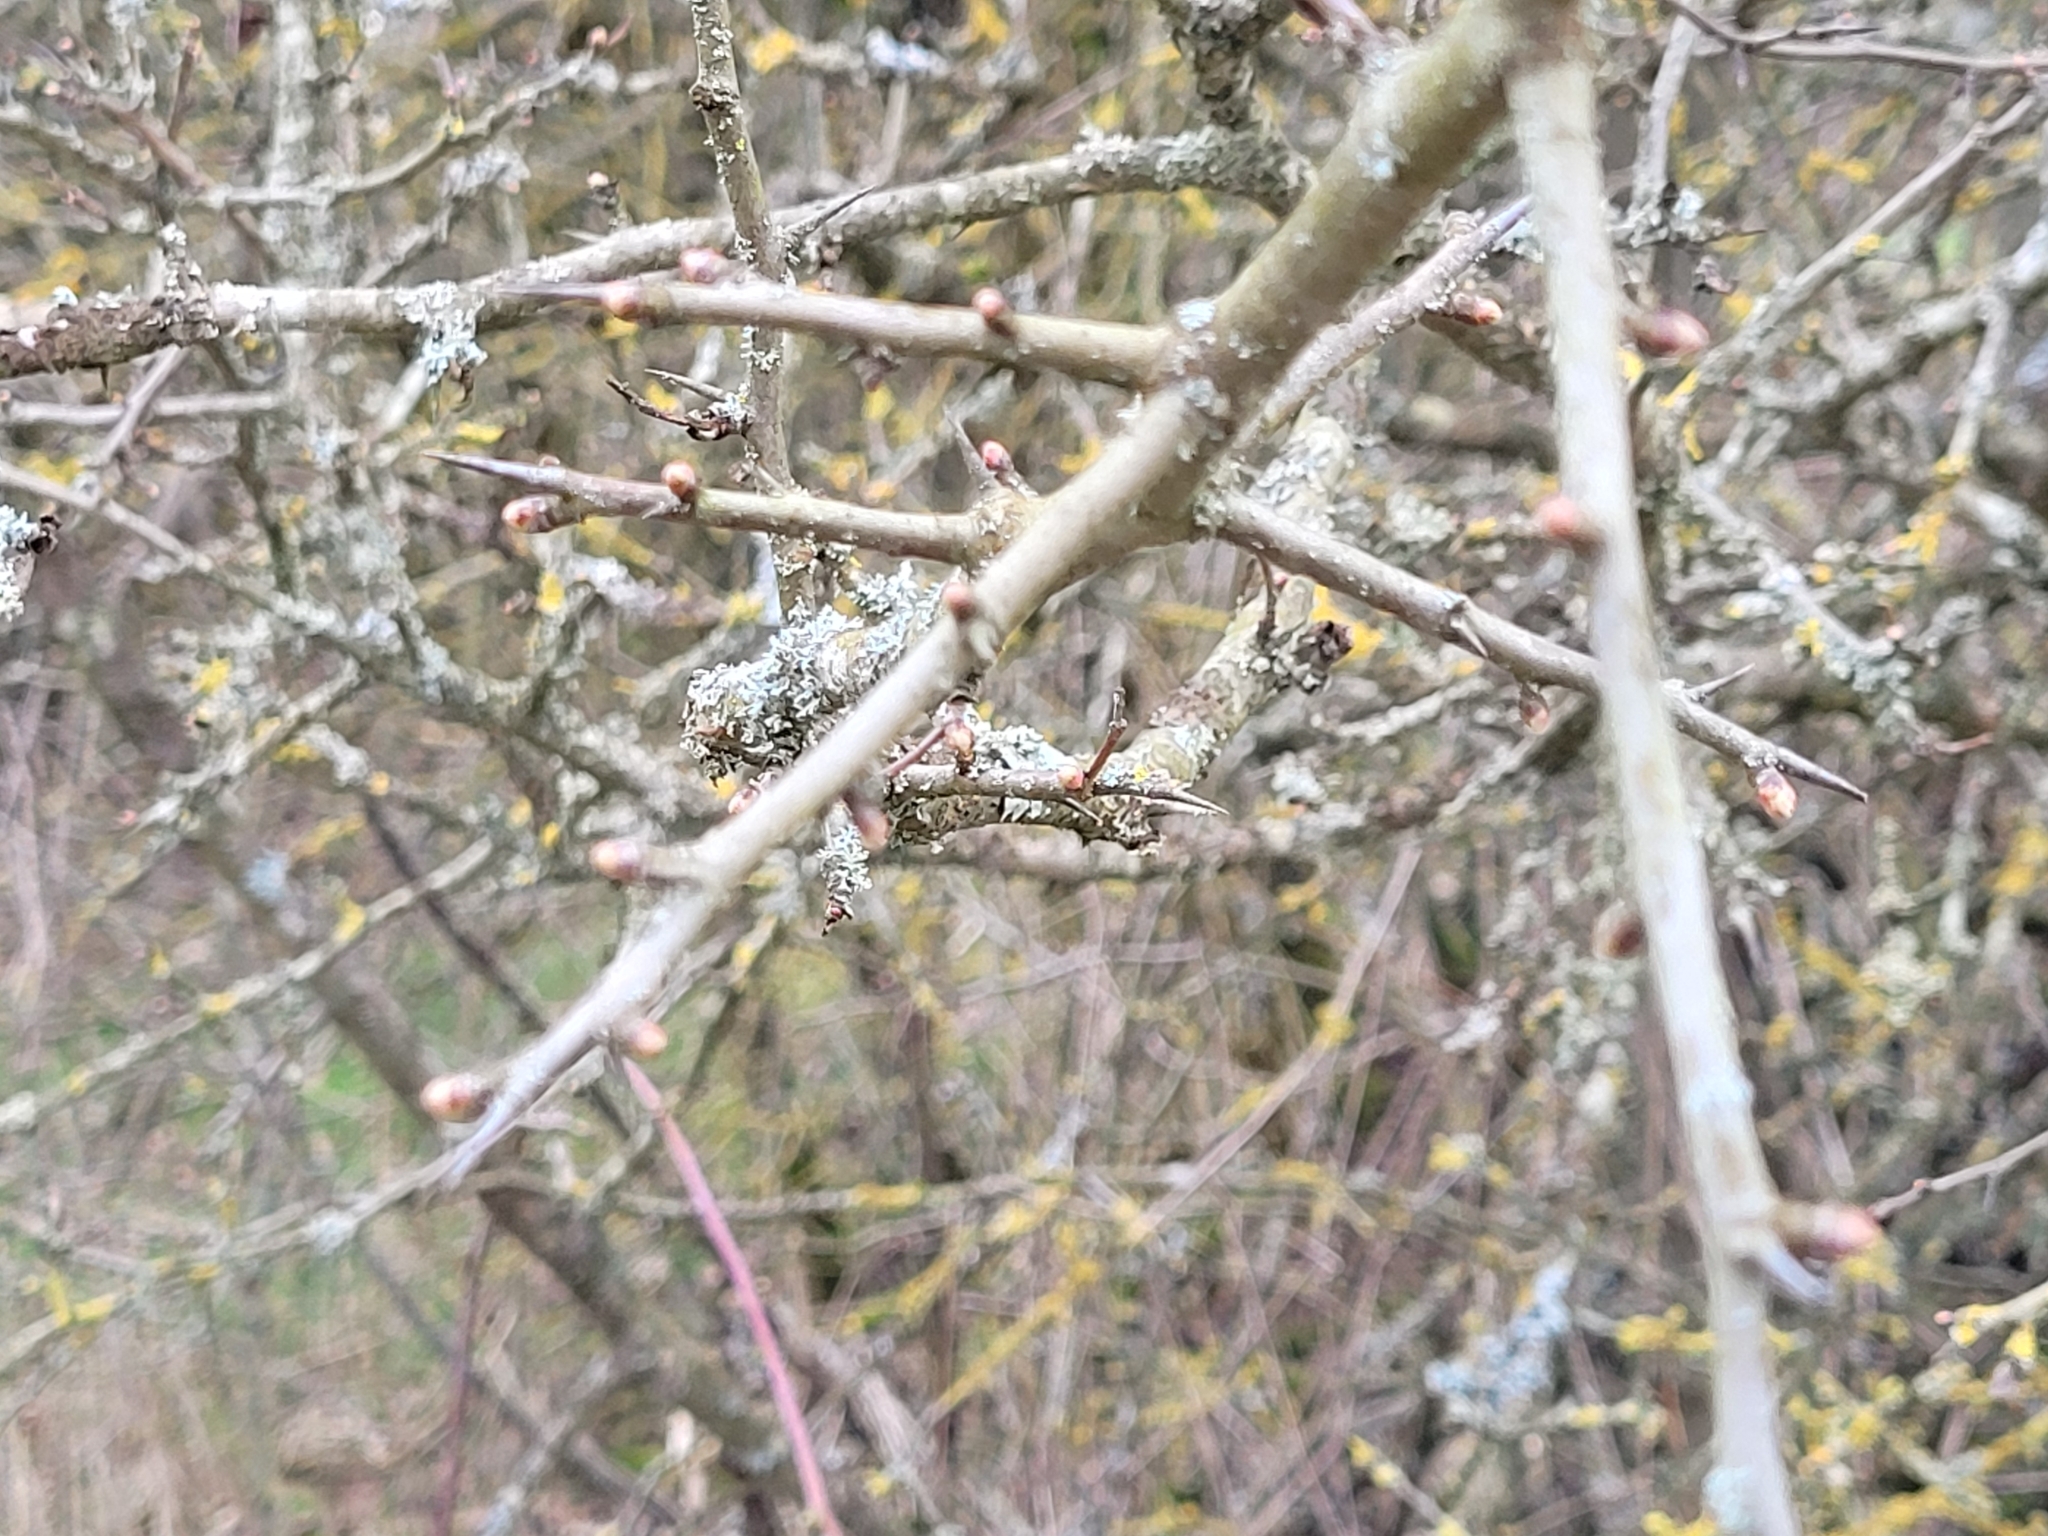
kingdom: Plantae
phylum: Tracheophyta
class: Magnoliopsida
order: Rosales
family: Rosaceae
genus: Prunus
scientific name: Prunus spinosa
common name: Blackthorn
